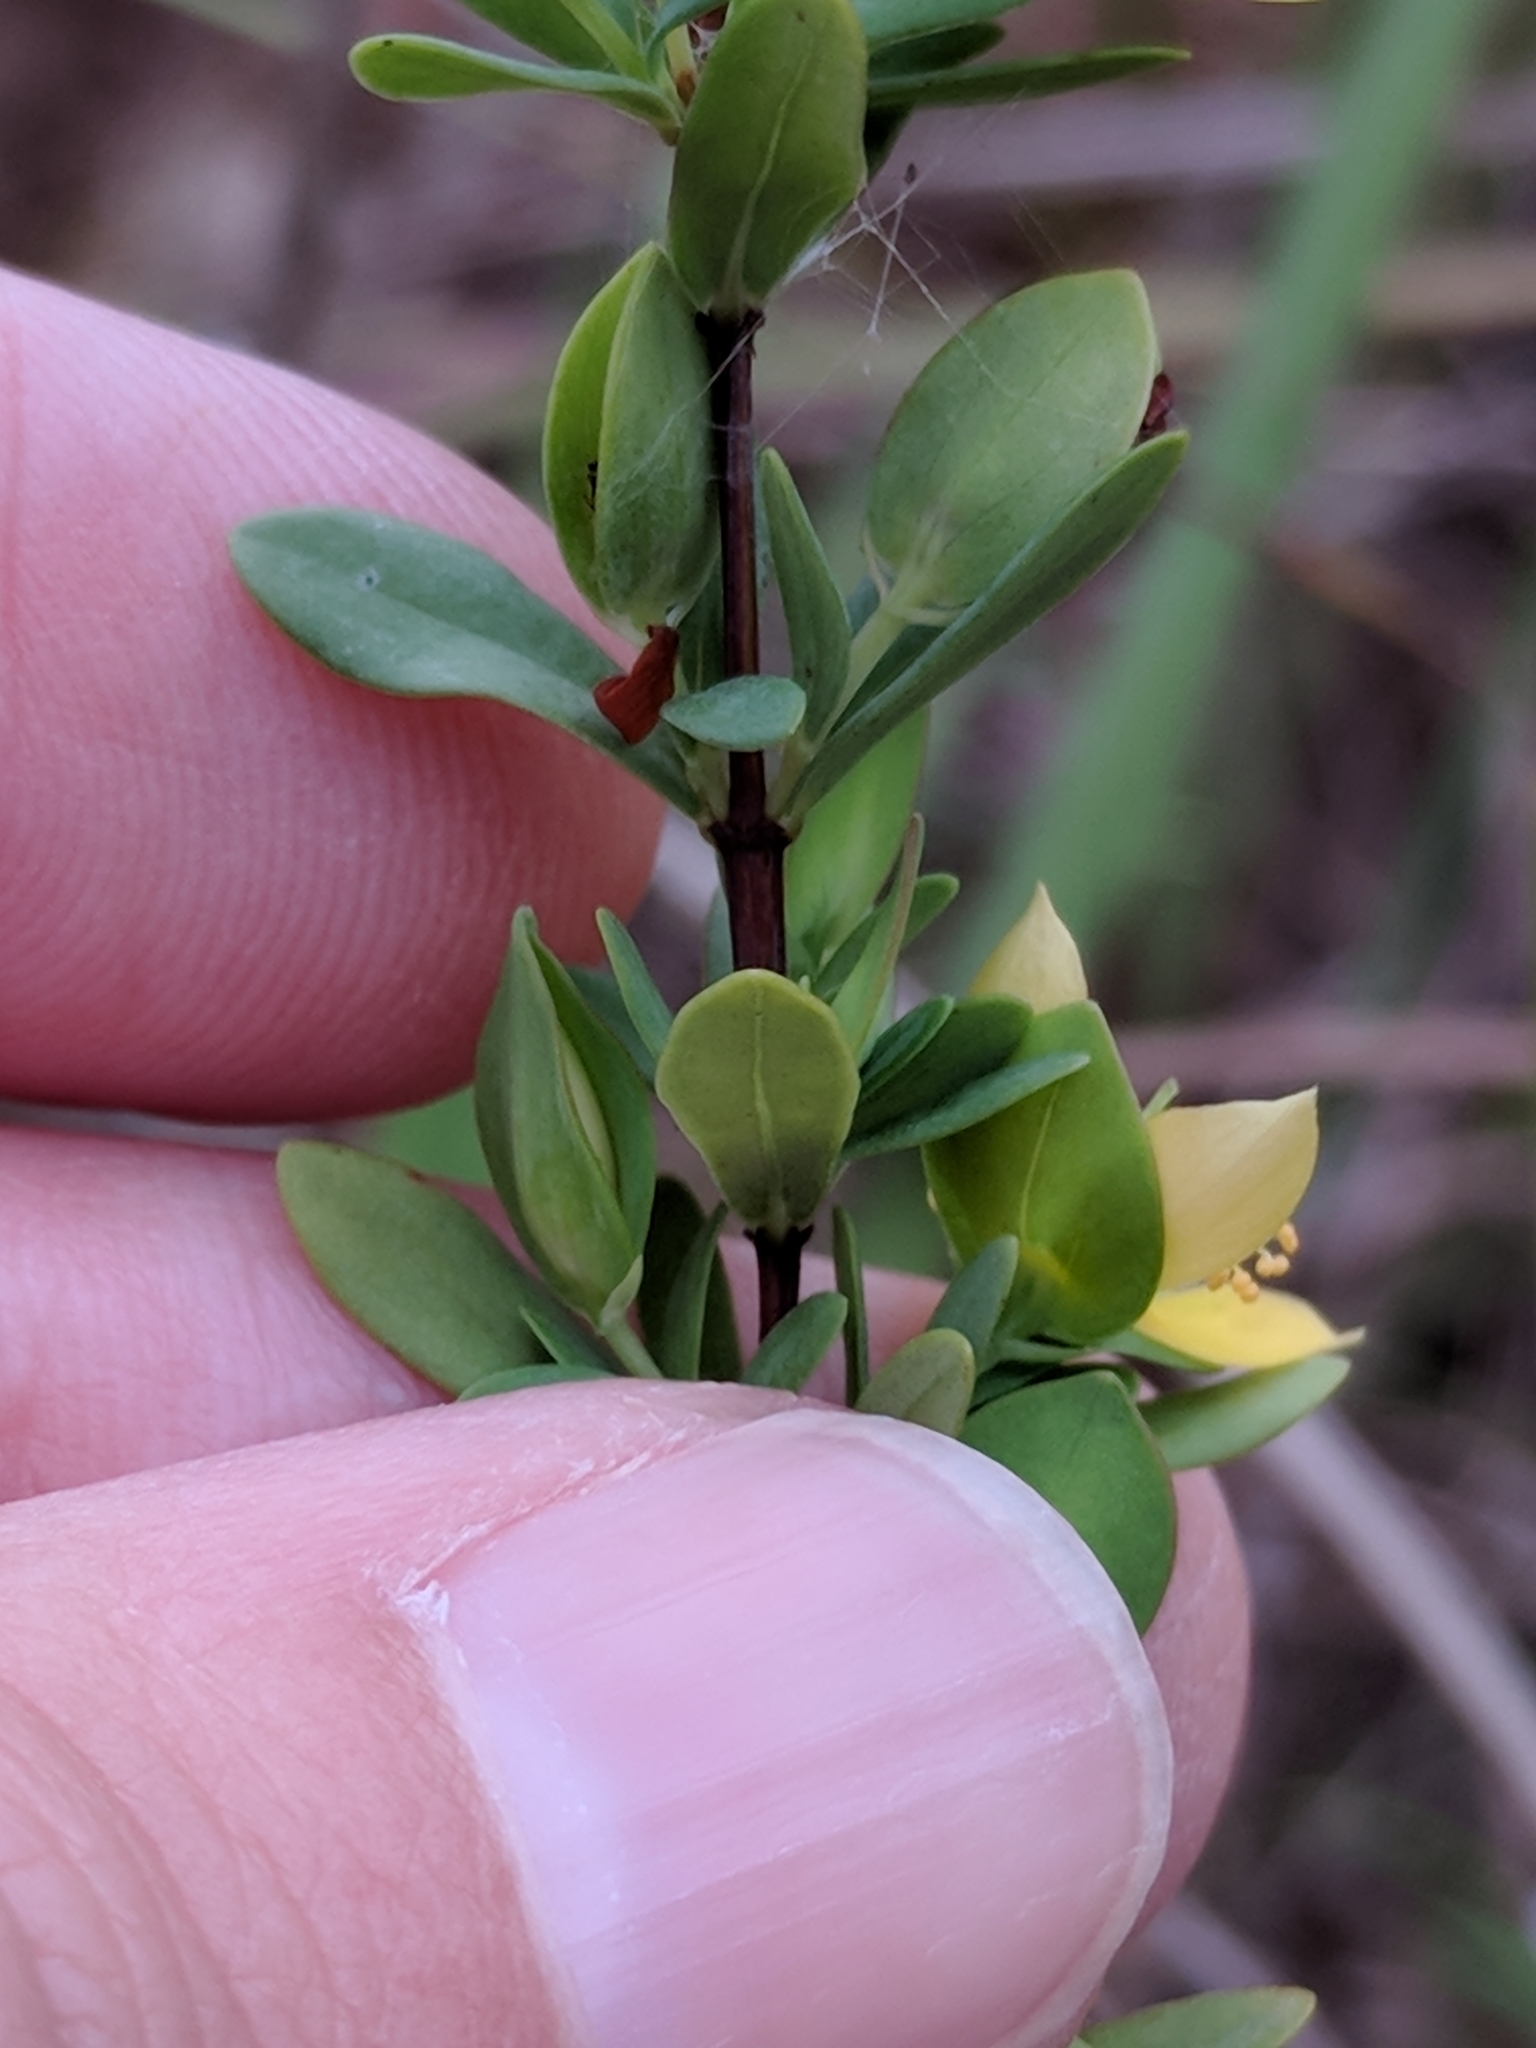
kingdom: Plantae
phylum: Tracheophyta
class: Magnoliopsida
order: Malpighiales
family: Hypericaceae
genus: Hypericum
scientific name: Hypericum hypericoides
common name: St. andrew's cross
